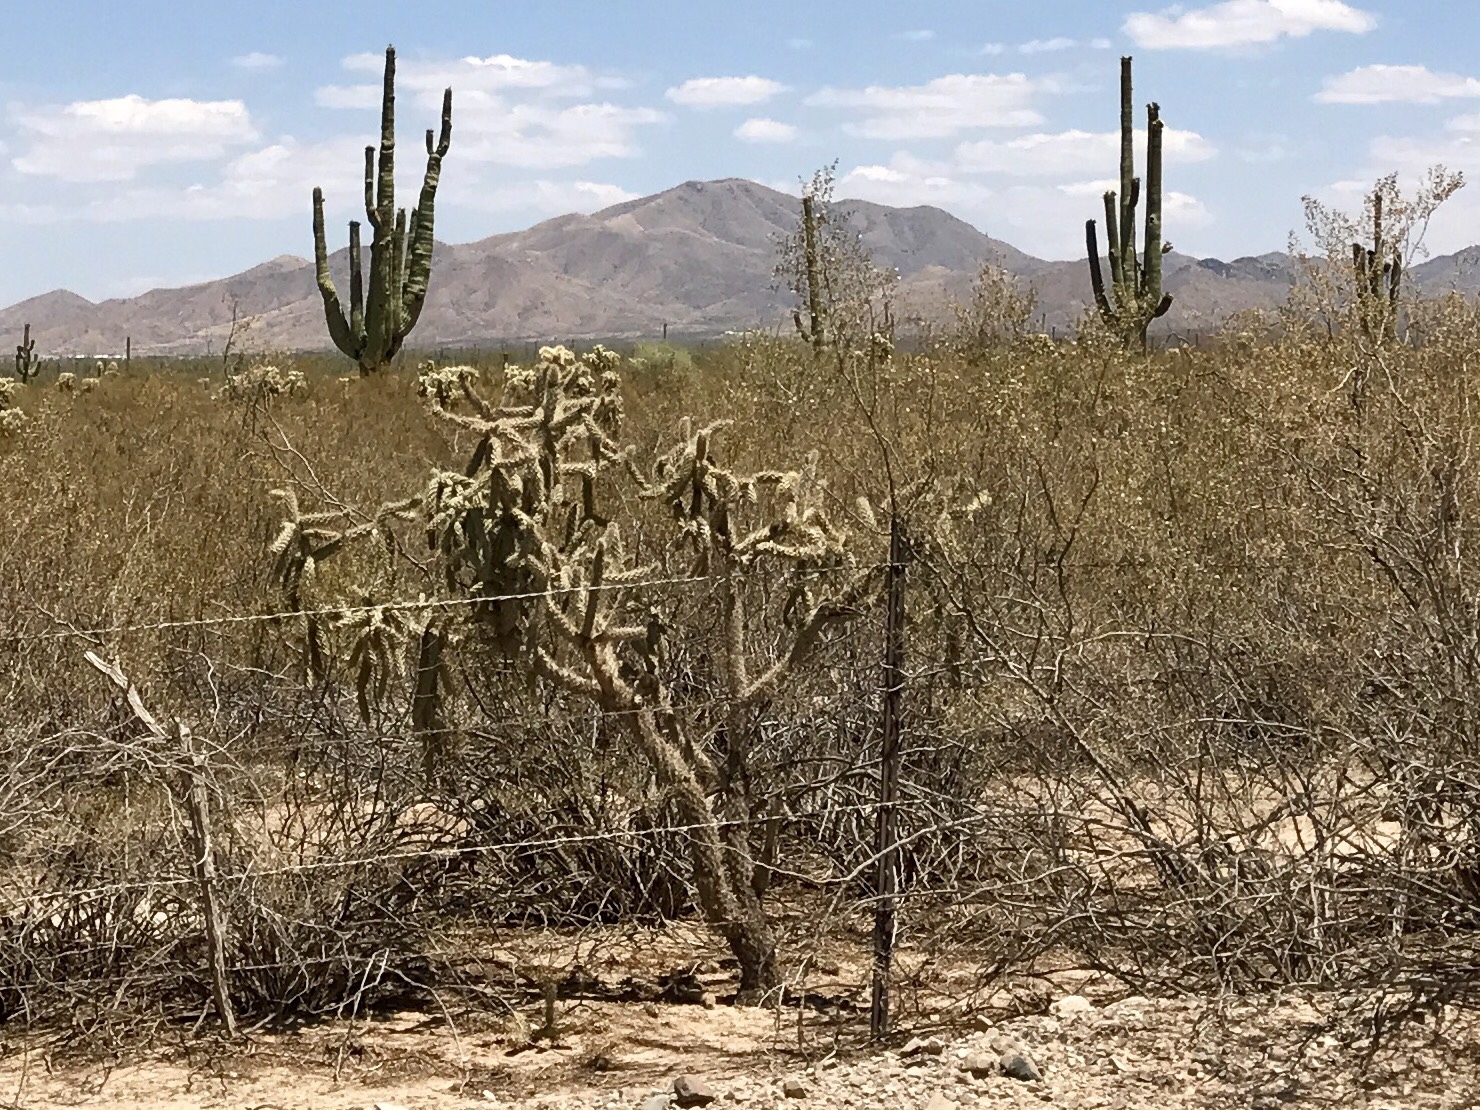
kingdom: Plantae
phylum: Tracheophyta
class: Magnoliopsida
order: Caryophyllales
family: Cactaceae
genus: Cylindropuntia
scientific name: Cylindropuntia fulgida
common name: Jumping cholla
